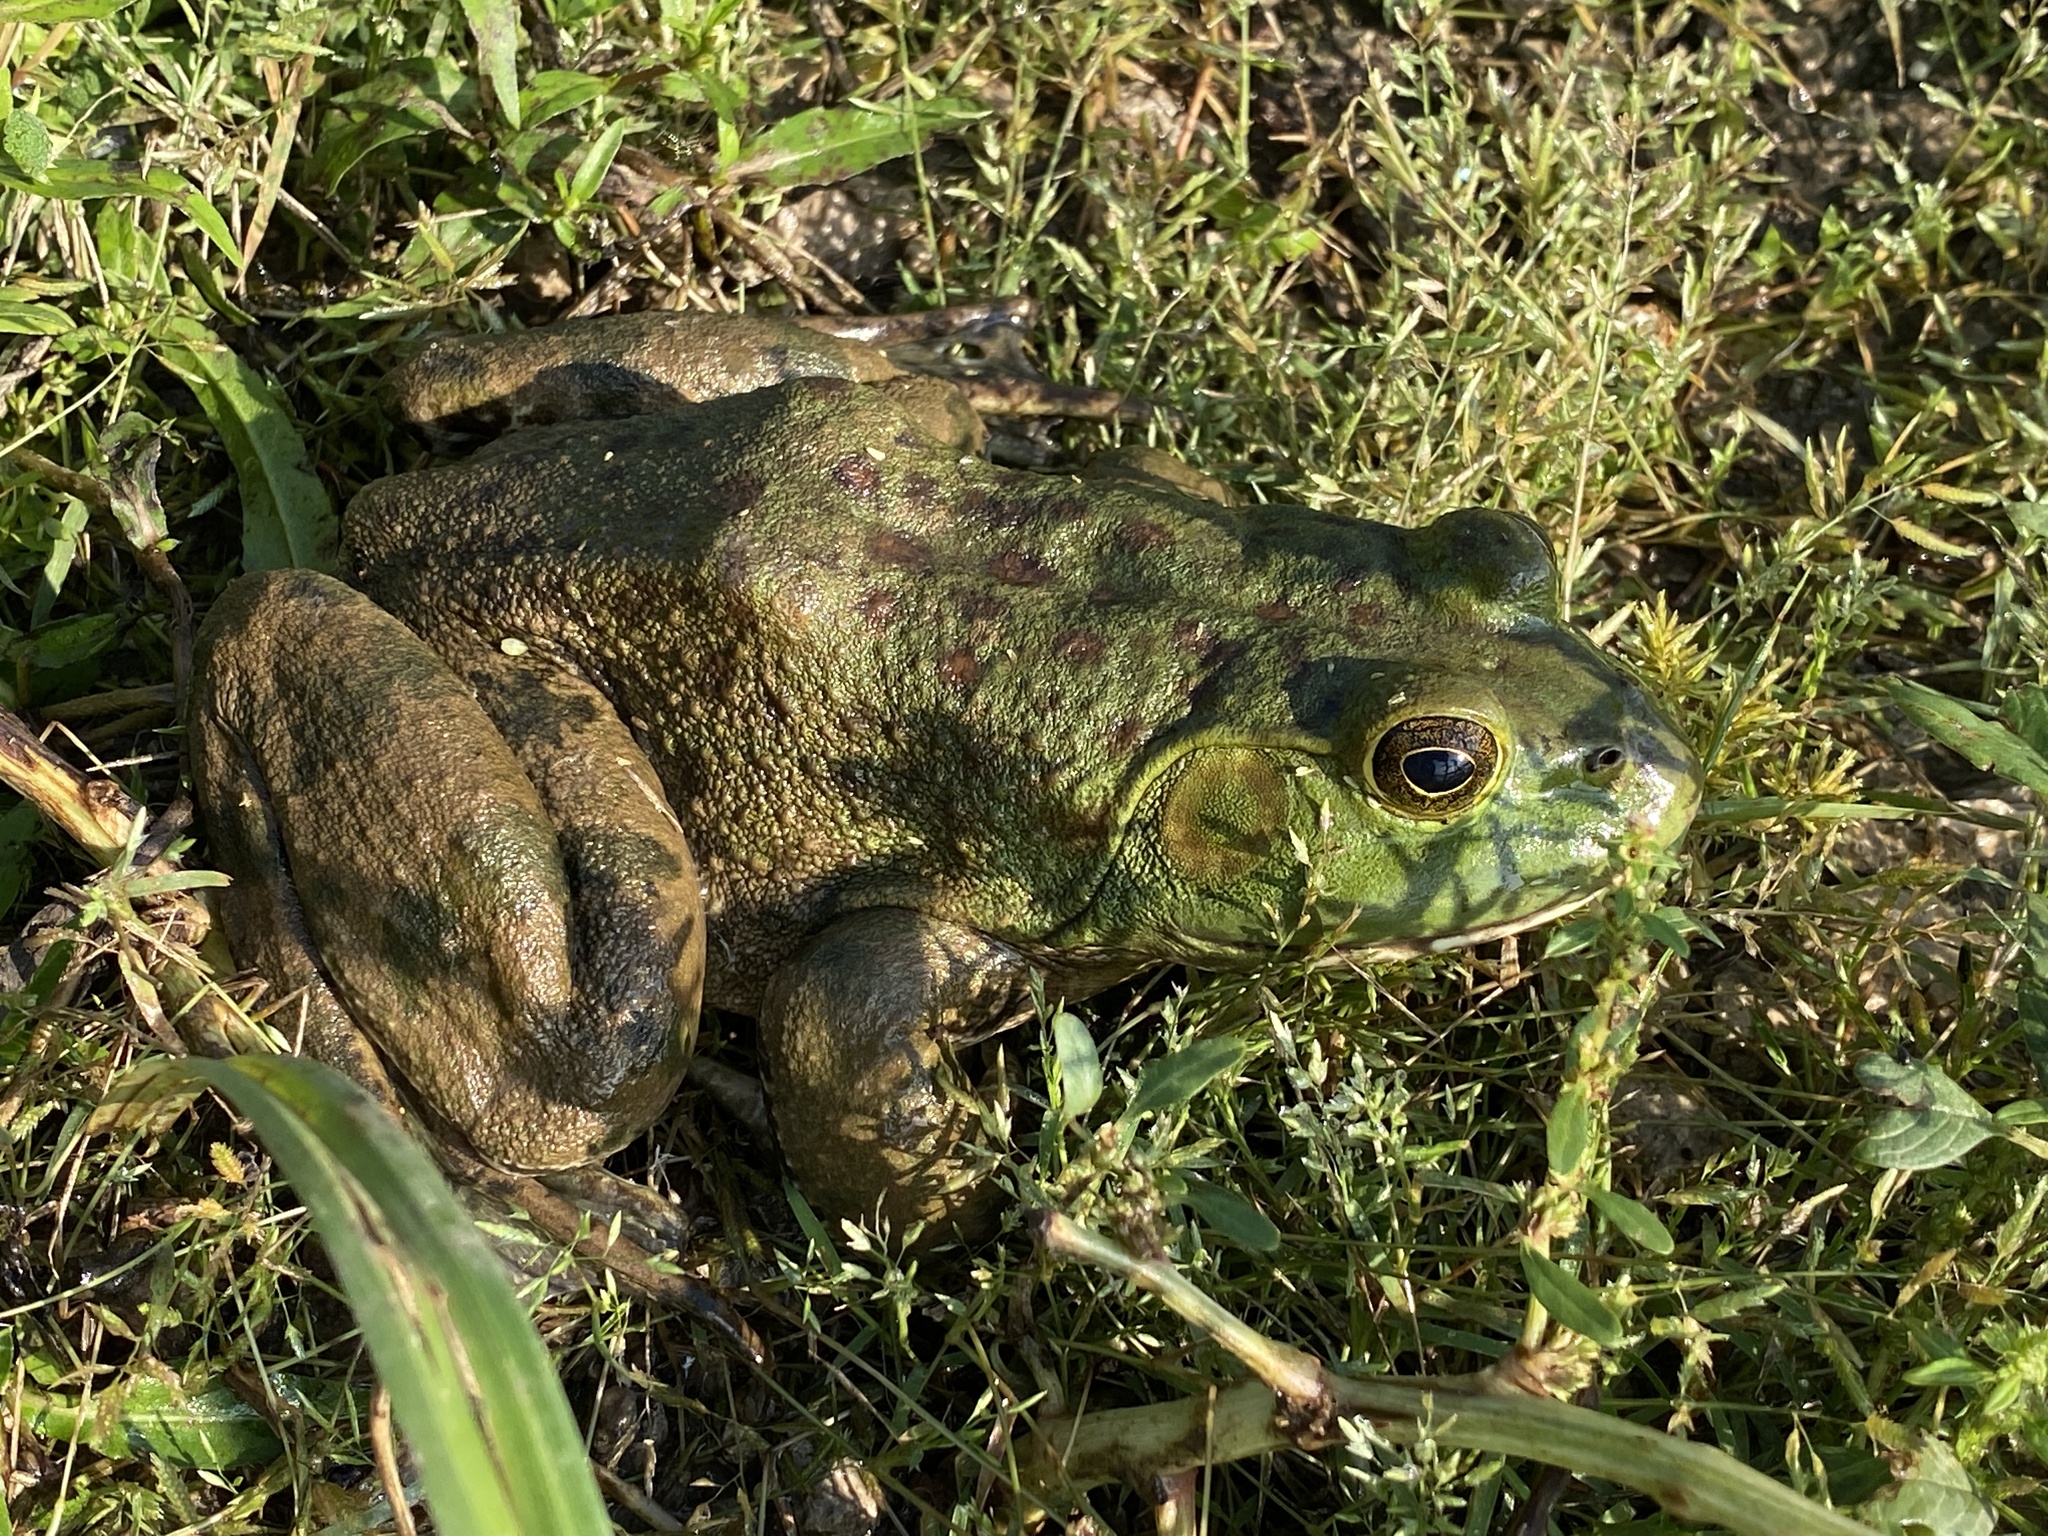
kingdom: Animalia
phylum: Chordata
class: Amphibia
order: Anura
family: Ranidae
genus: Lithobates
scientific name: Lithobates catesbeianus
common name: American bullfrog
